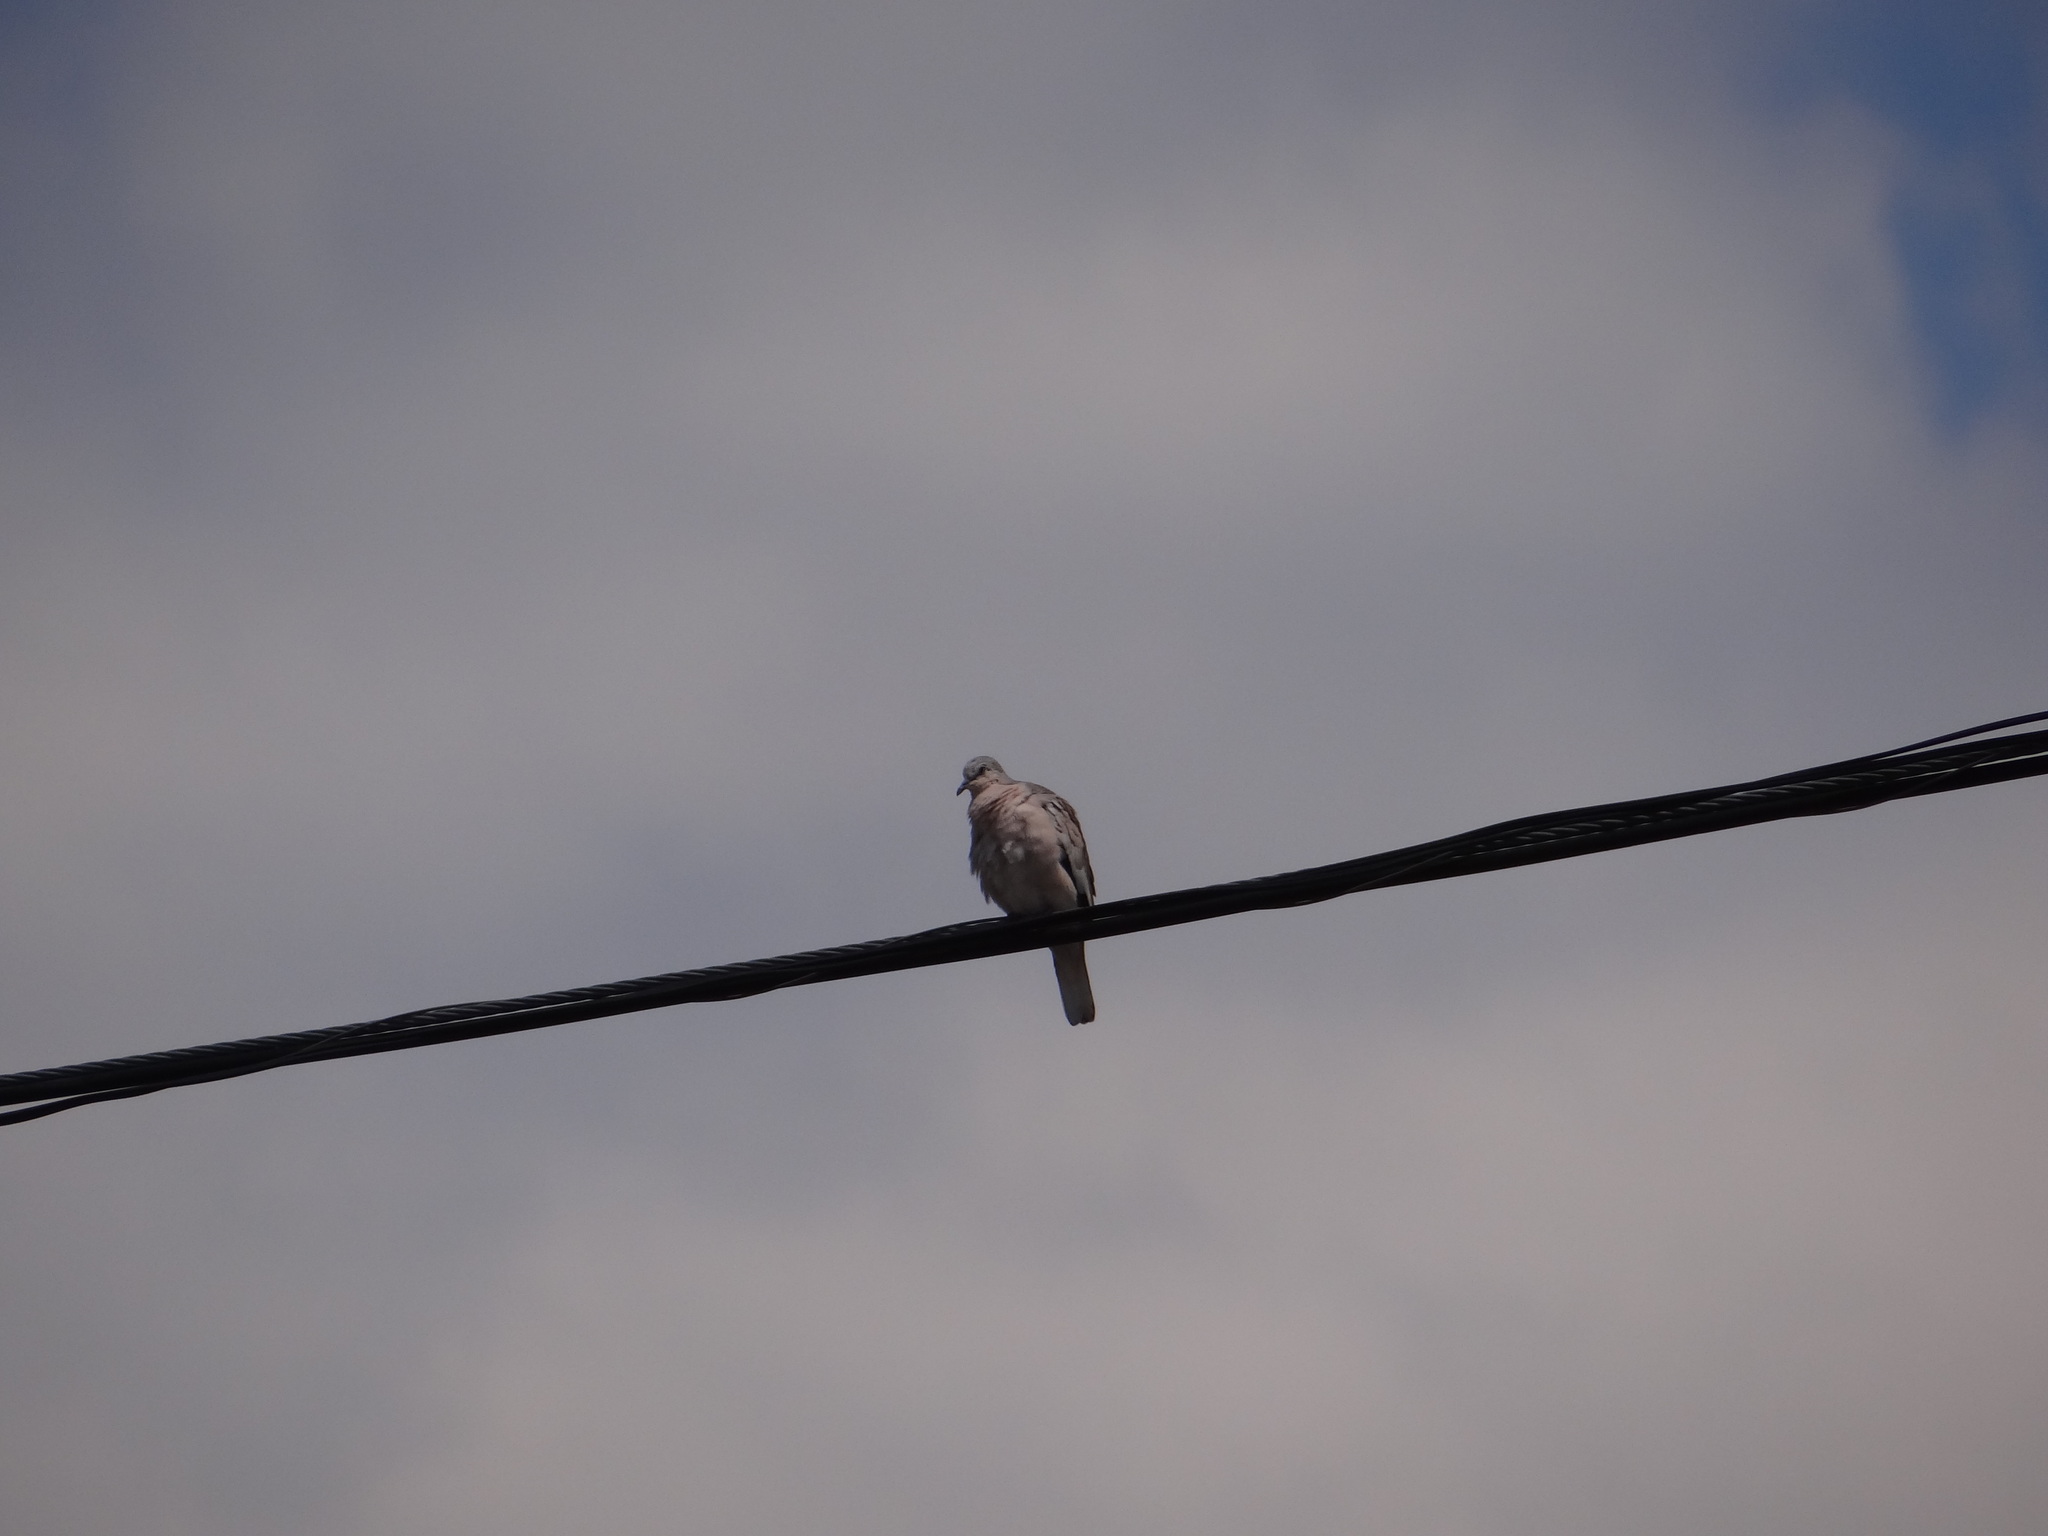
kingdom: Animalia
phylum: Chordata
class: Aves
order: Columbiformes
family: Columbidae
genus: Columbina
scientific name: Columbina picui
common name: Picui ground dove
